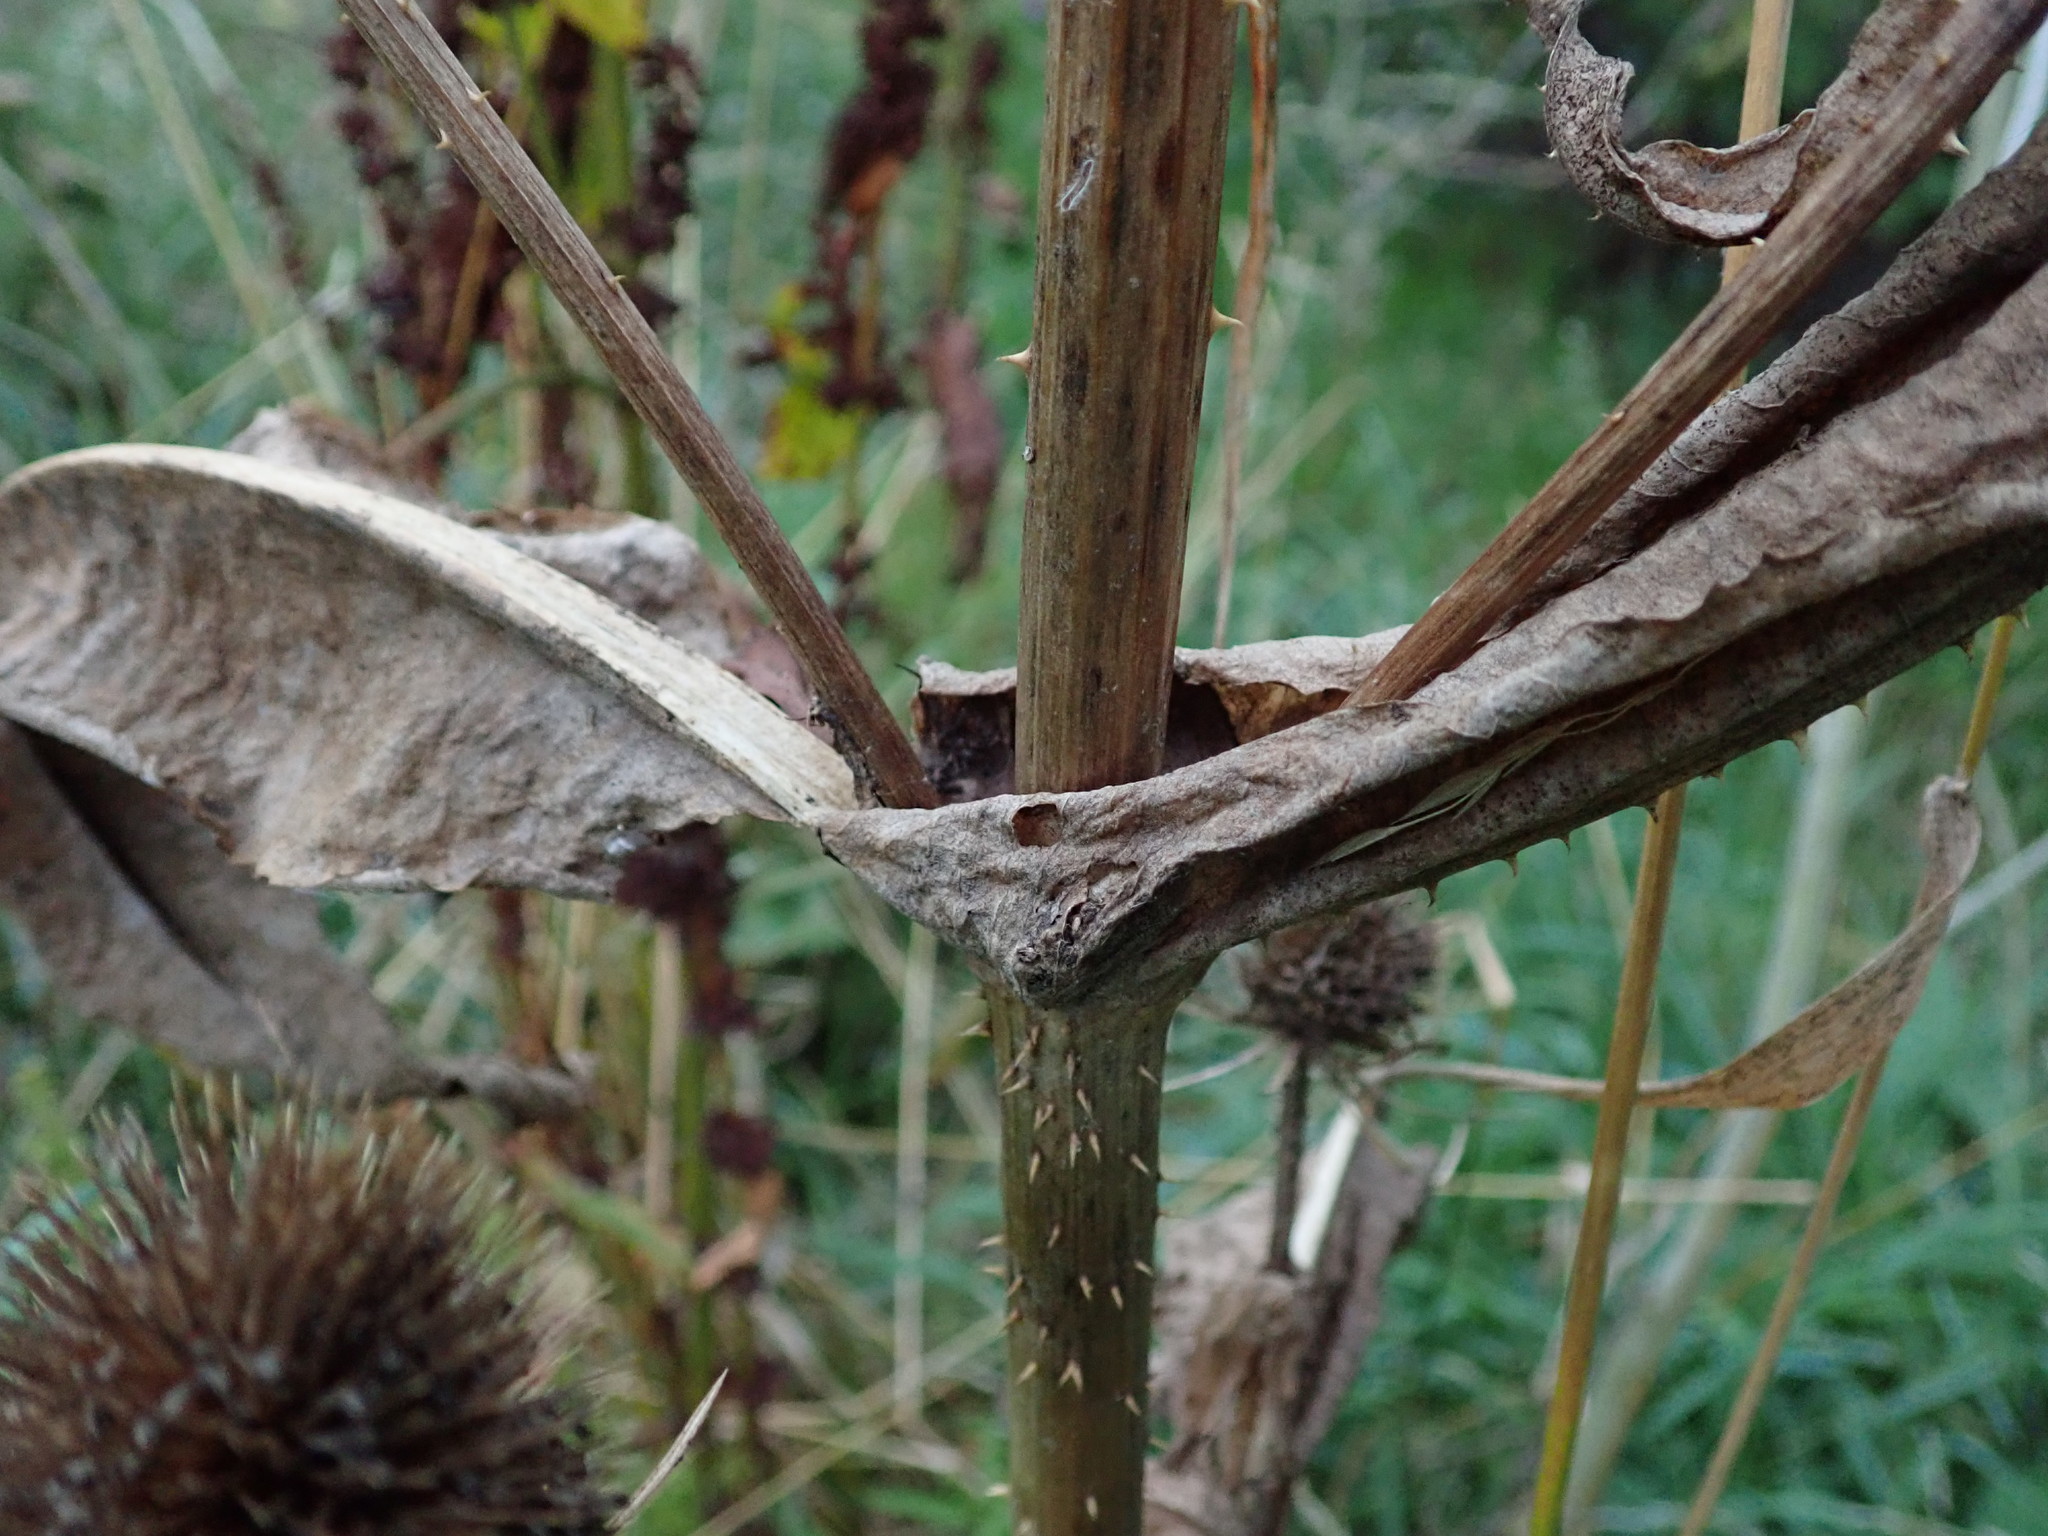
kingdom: Plantae
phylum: Tracheophyta
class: Magnoliopsida
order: Dipsacales
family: Caprifoliaceae
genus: Dipsacus
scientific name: Dipsacus fullonum
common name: Teasel
